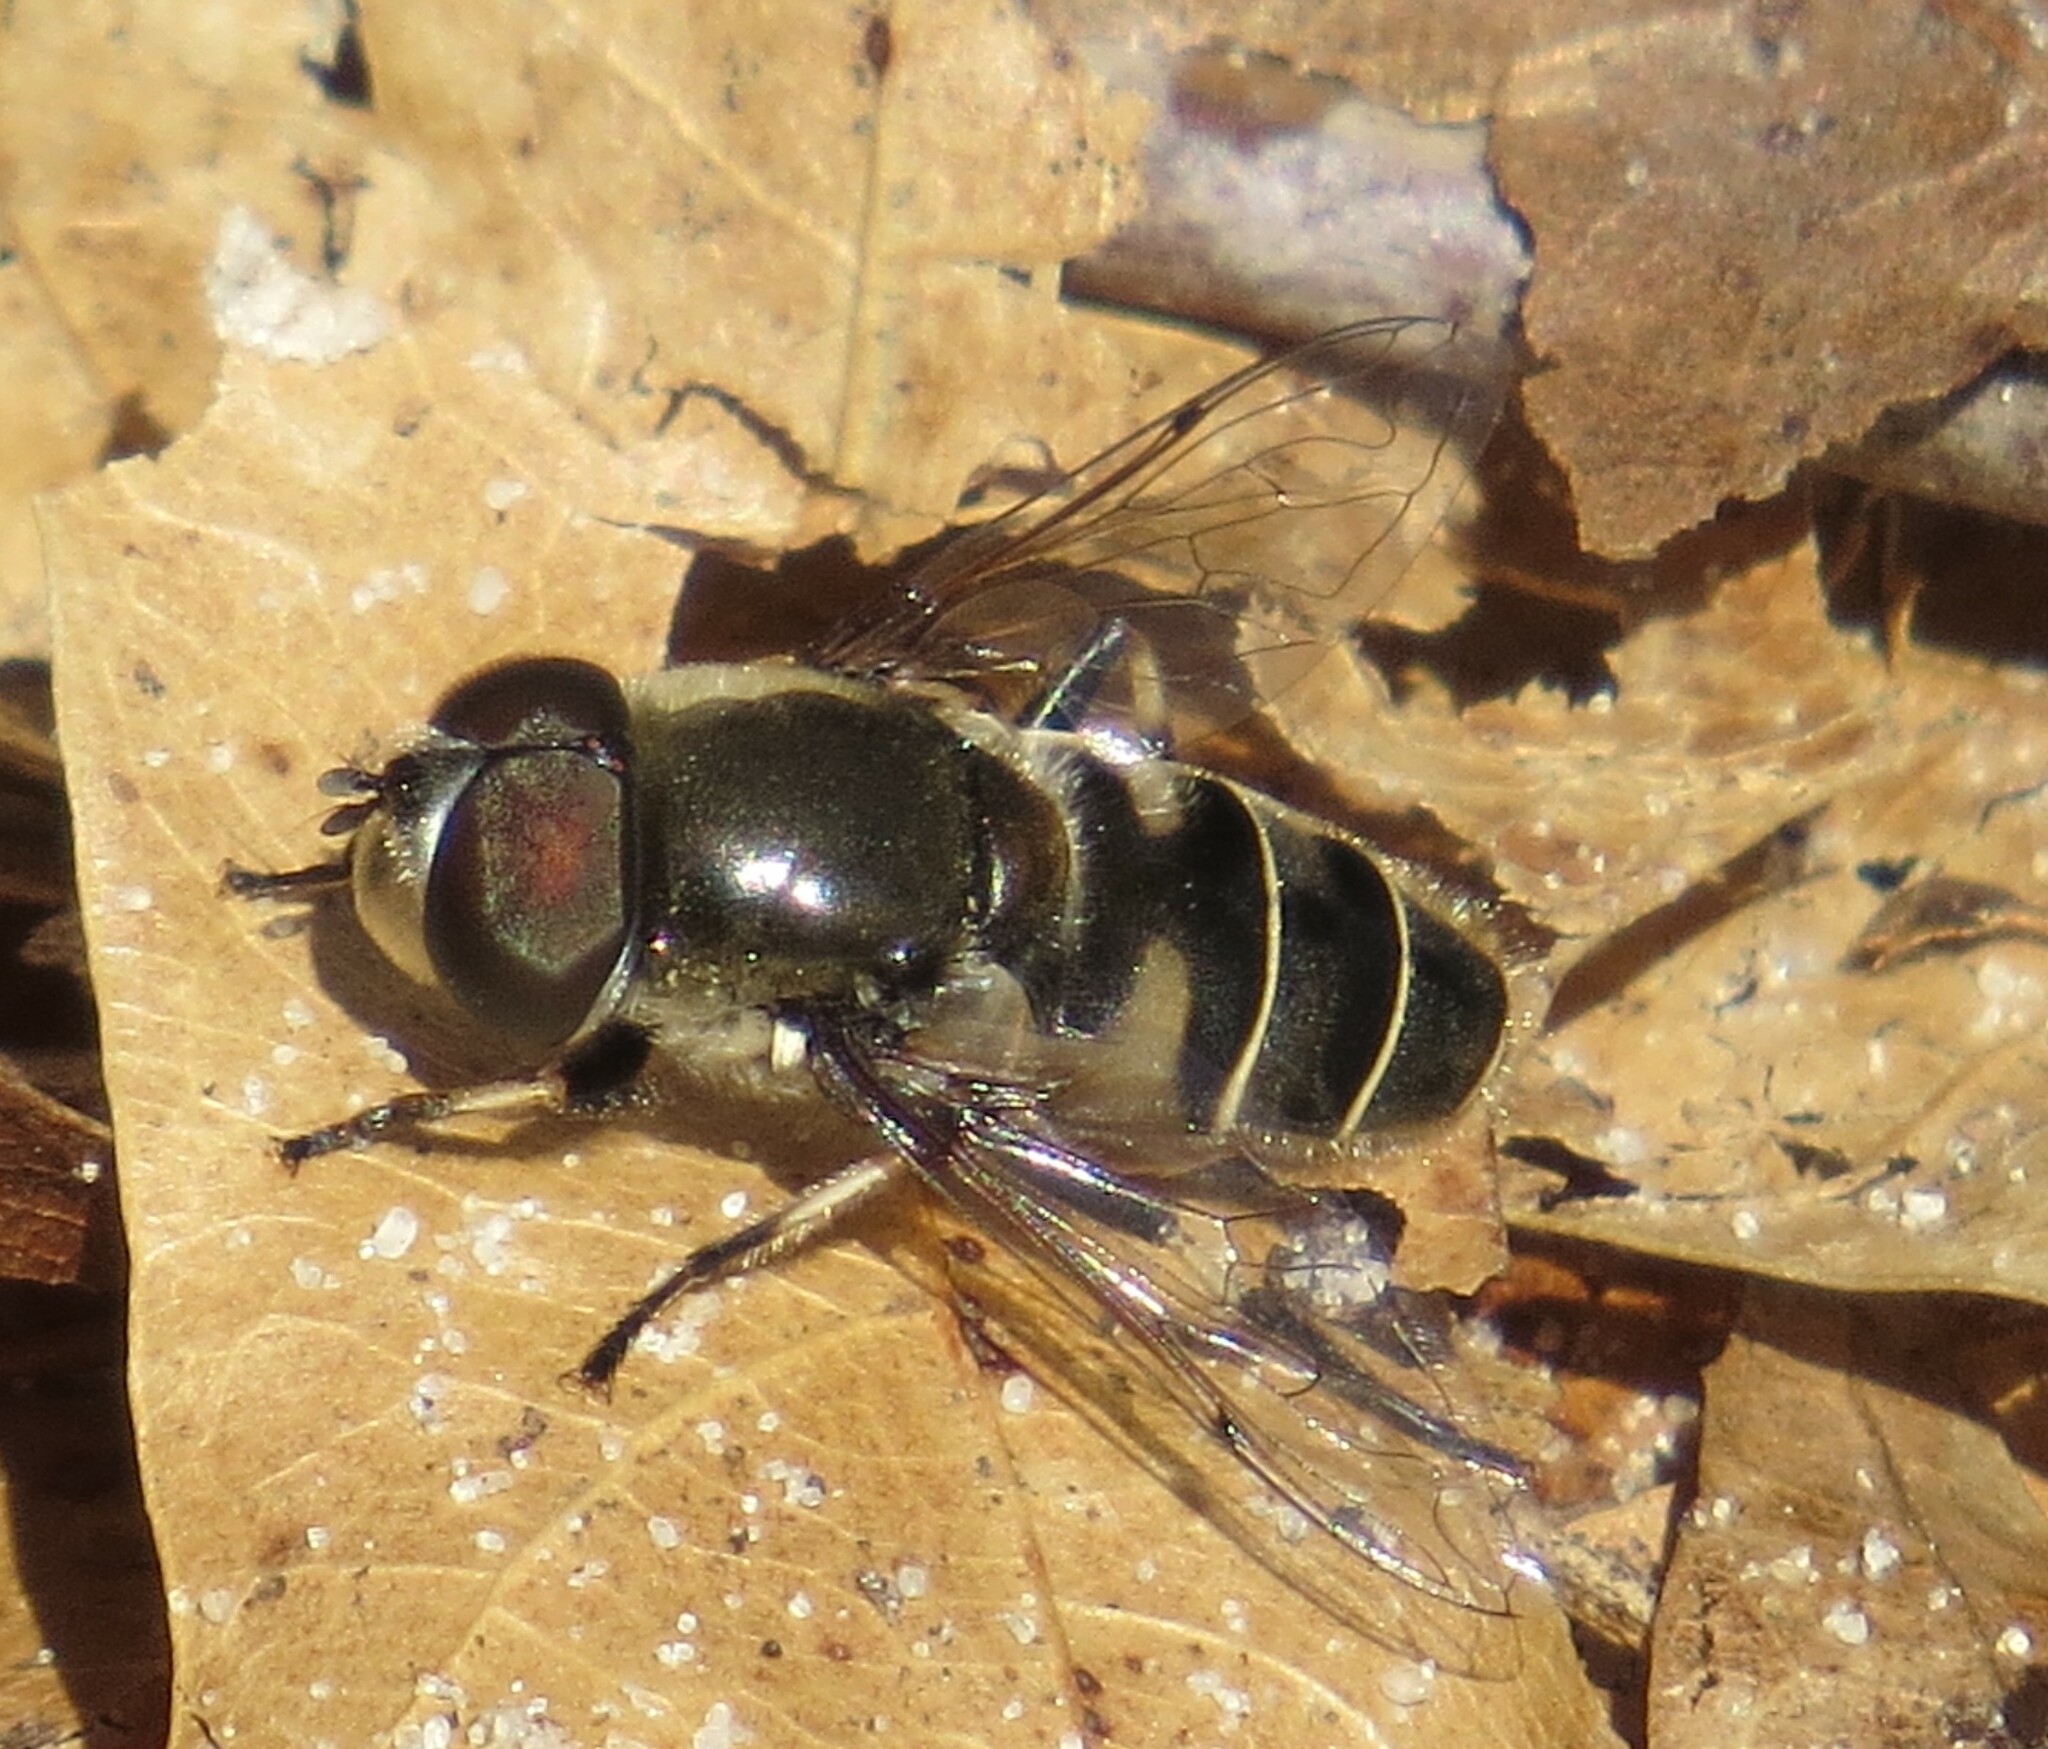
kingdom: Animalia
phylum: Arthropoda
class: Insecta
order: Diptera
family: Syrphidae
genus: Eristalis
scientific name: Eristalis dimidiata
